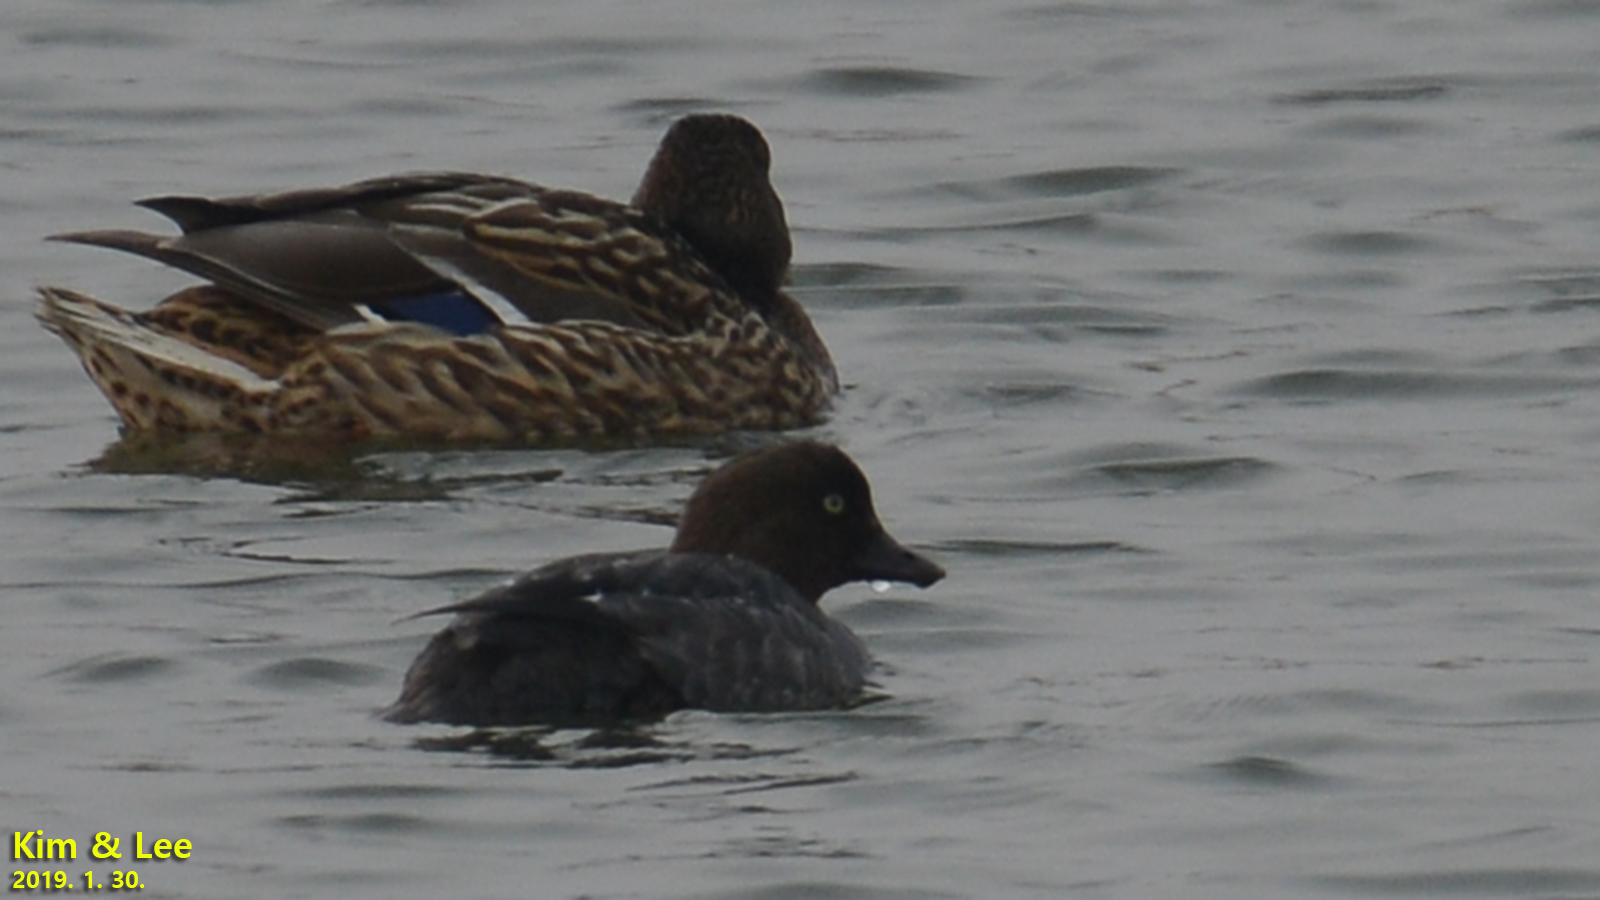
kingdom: Animalia
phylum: Chordata
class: Aves
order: Anseriformes
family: Anatidae
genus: Bucephala
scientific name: Bucephala clangula
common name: Common goldeneye
